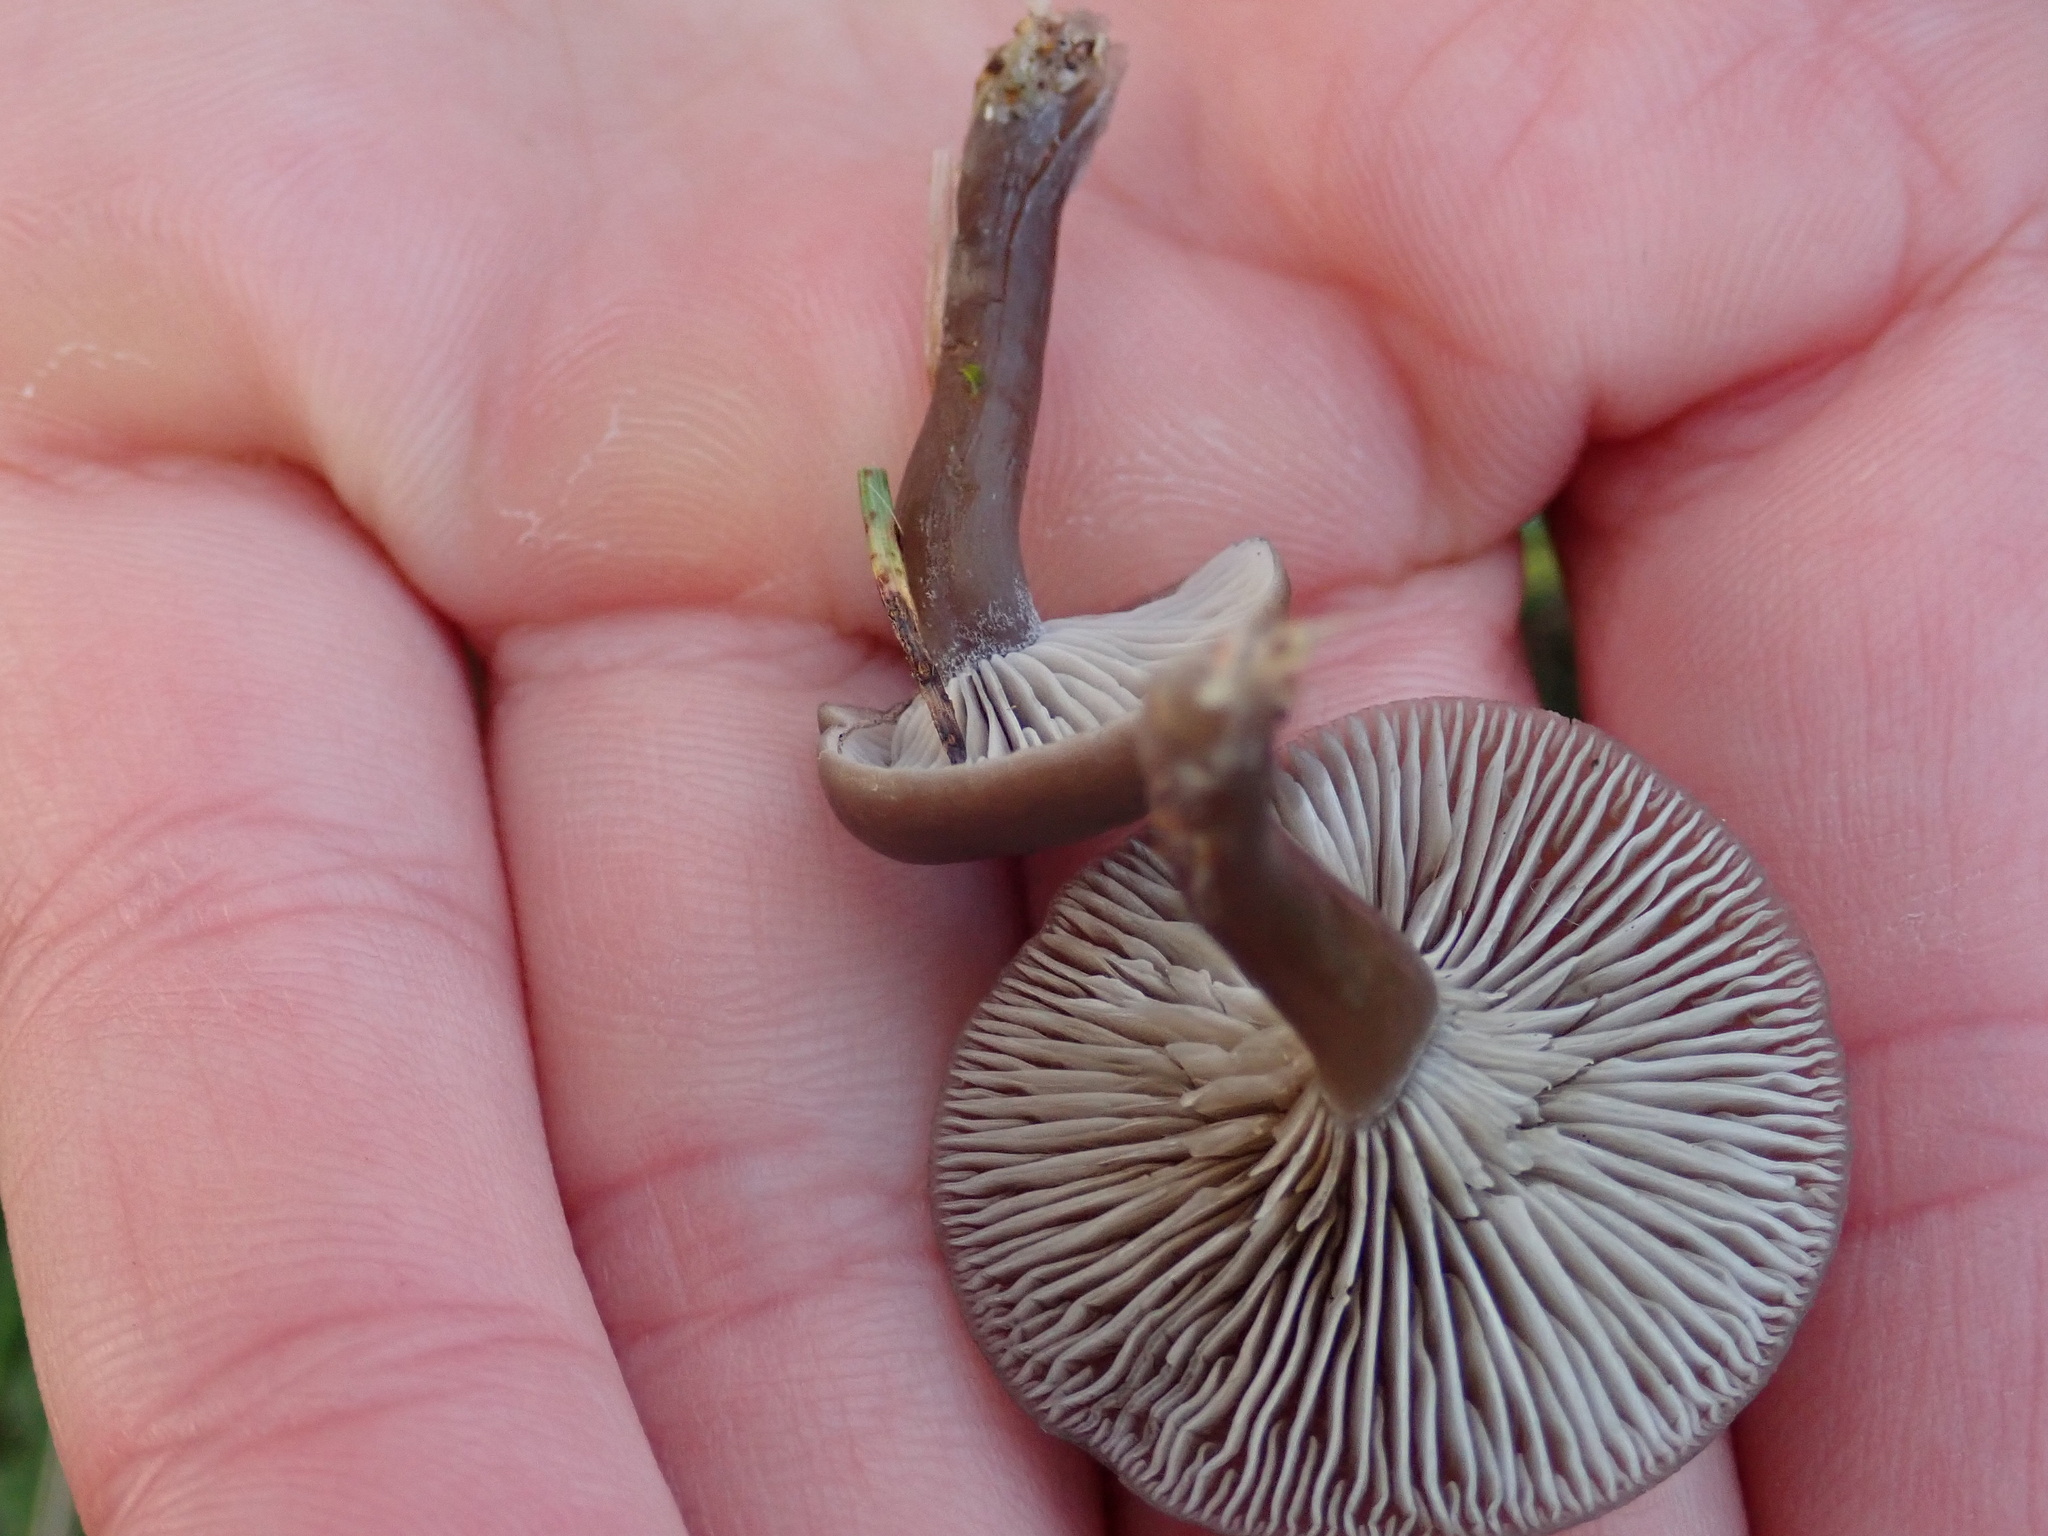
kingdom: Fungi
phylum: Basidiomycota
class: Agaricomycetes
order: Agaricales
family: Tricholomataceae
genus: Clitocybe
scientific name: Clitocybe barbularum
